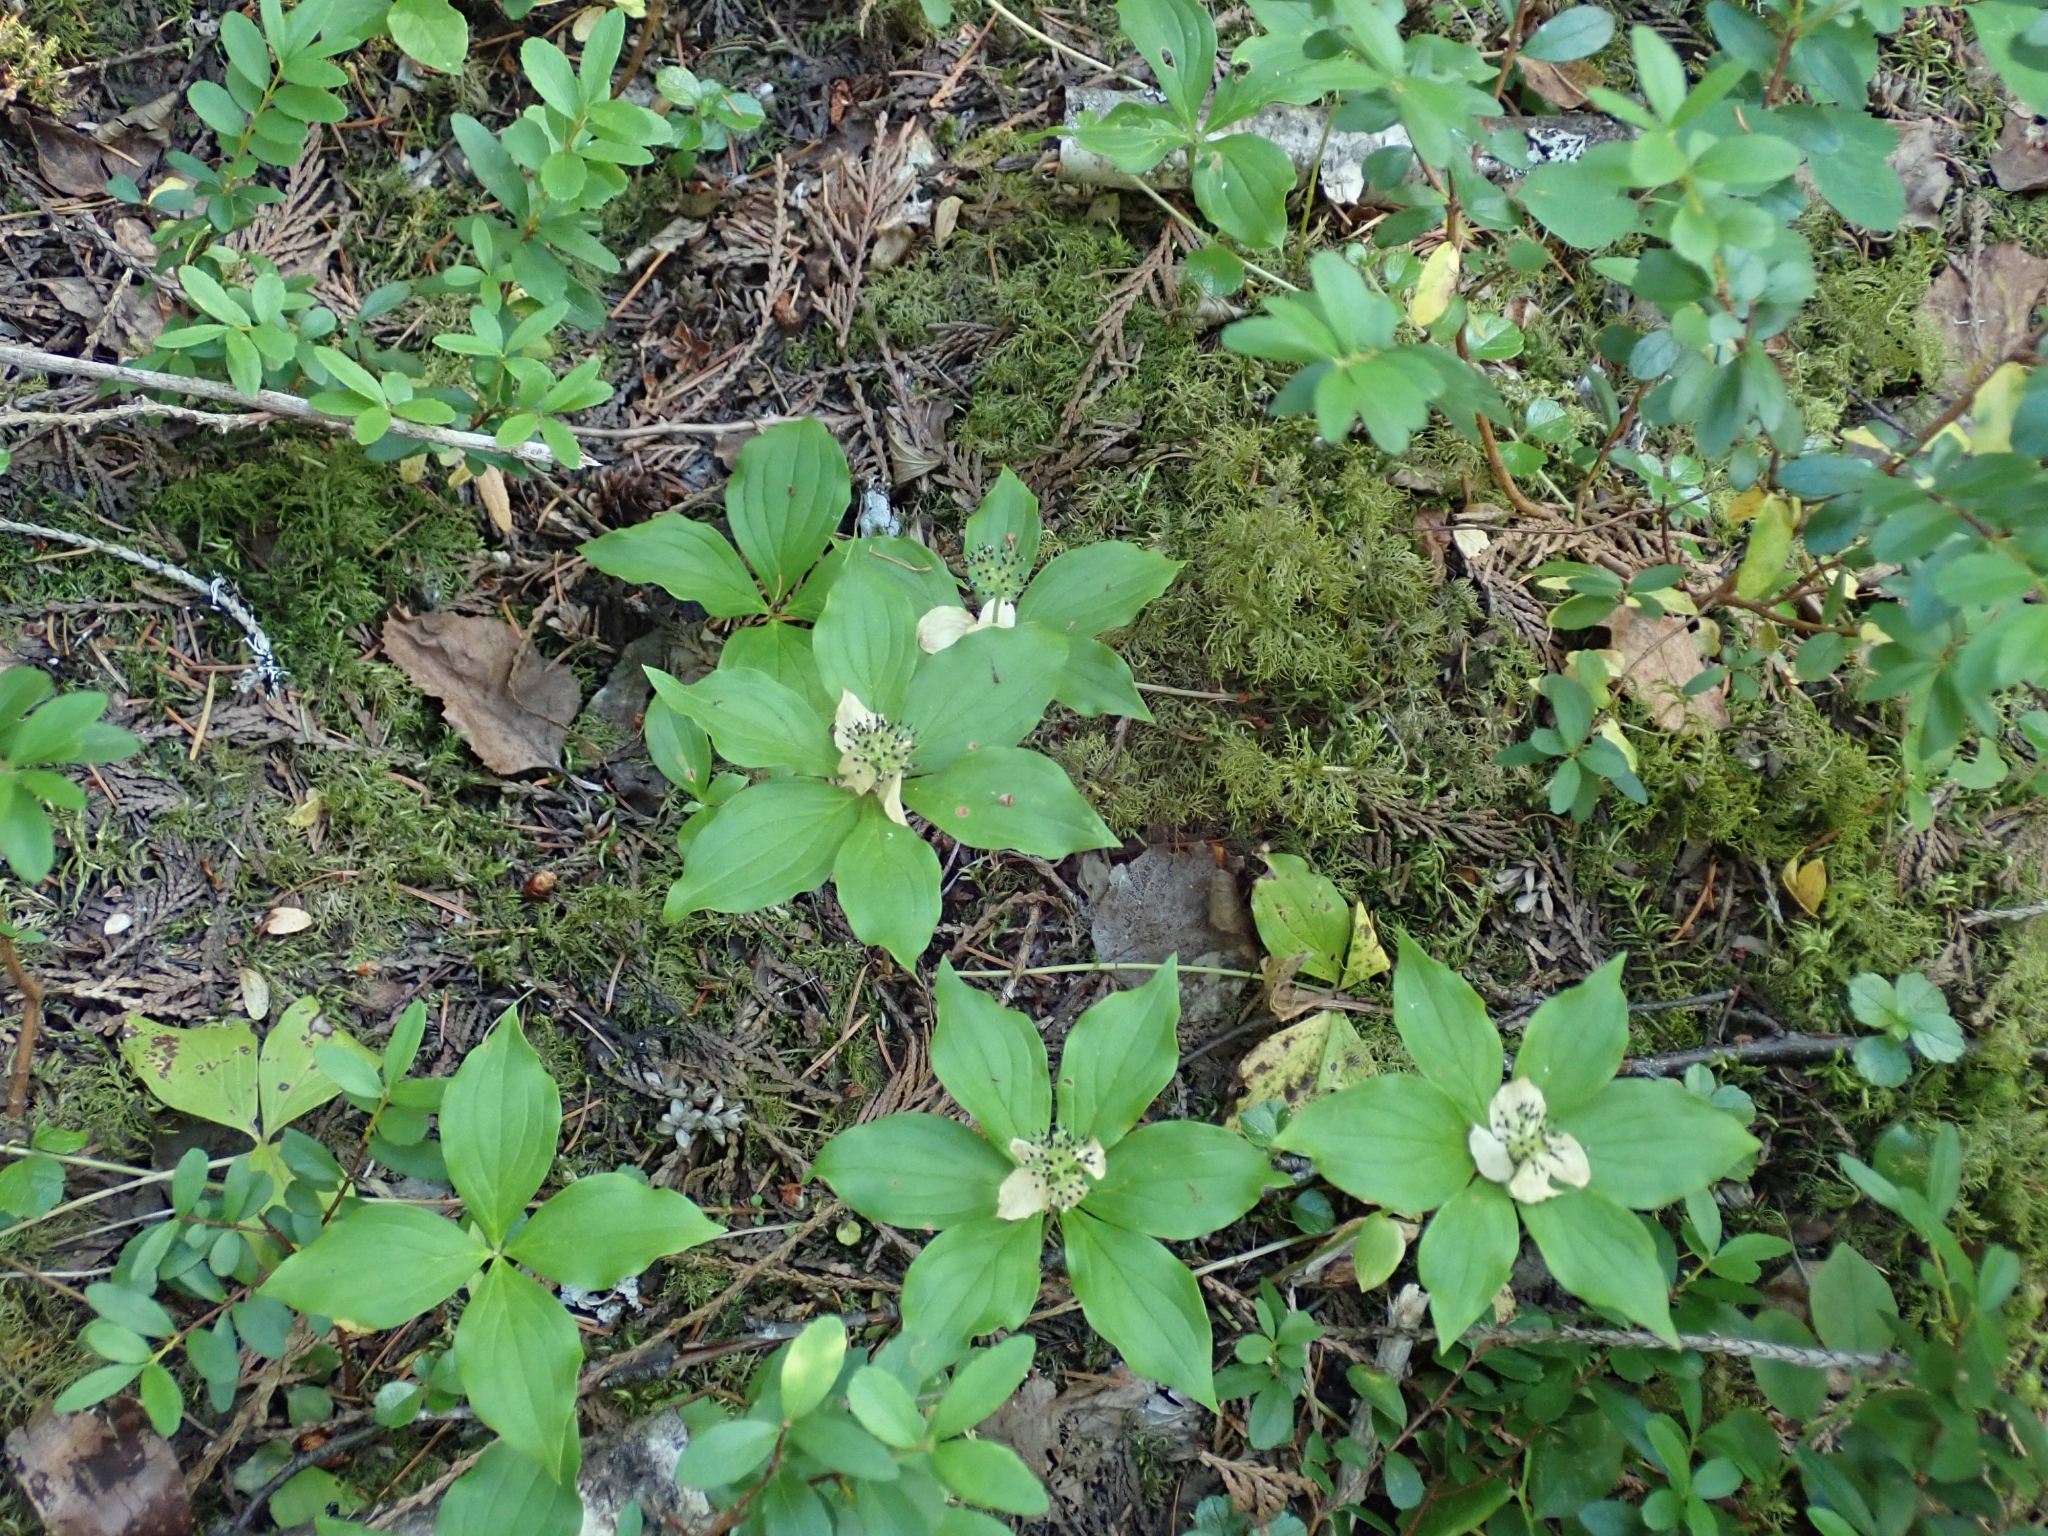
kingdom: Plantae
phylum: Tracheophyta
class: Magnoliopsida
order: Cornales
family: Cornaceae
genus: Cornus
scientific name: Cornus unalaschkensis
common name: Alaska bunchberry
